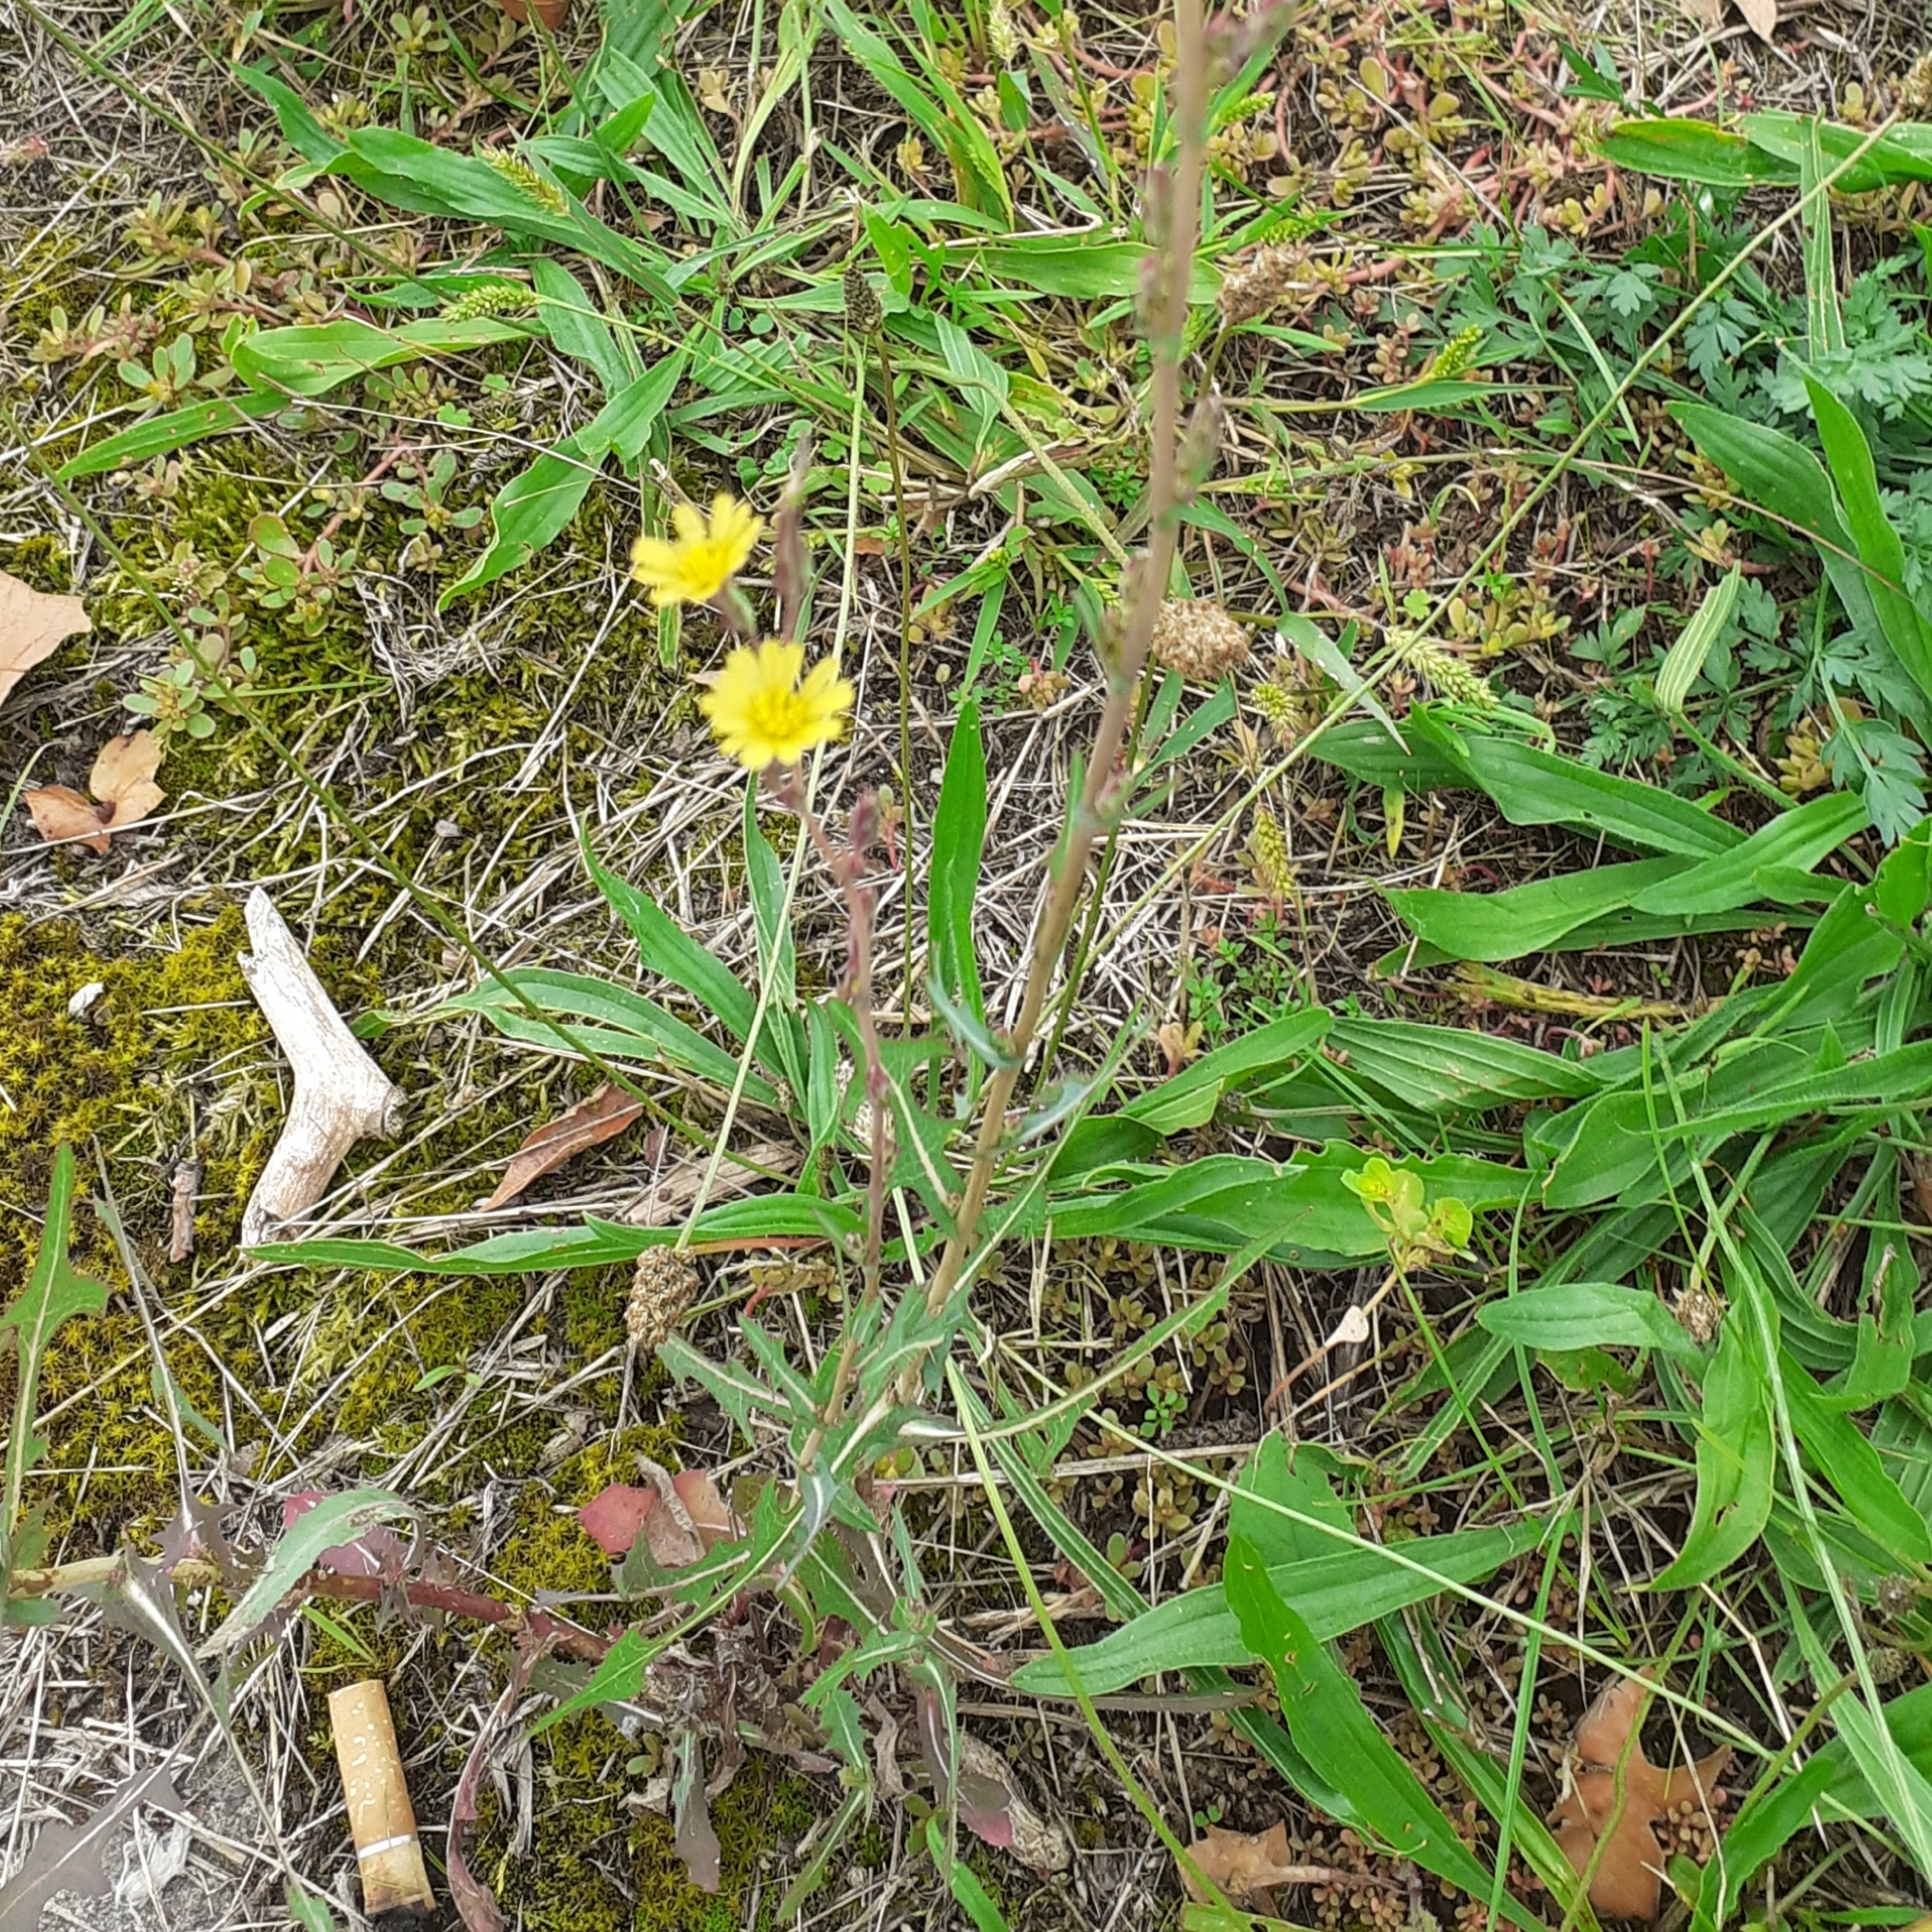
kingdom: Plantae
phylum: Tracheophyta
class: Magnoliopsida
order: Asterales
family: Asteraceae
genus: Lactuca
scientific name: Lactuca serriola
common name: Prickly lettuce
